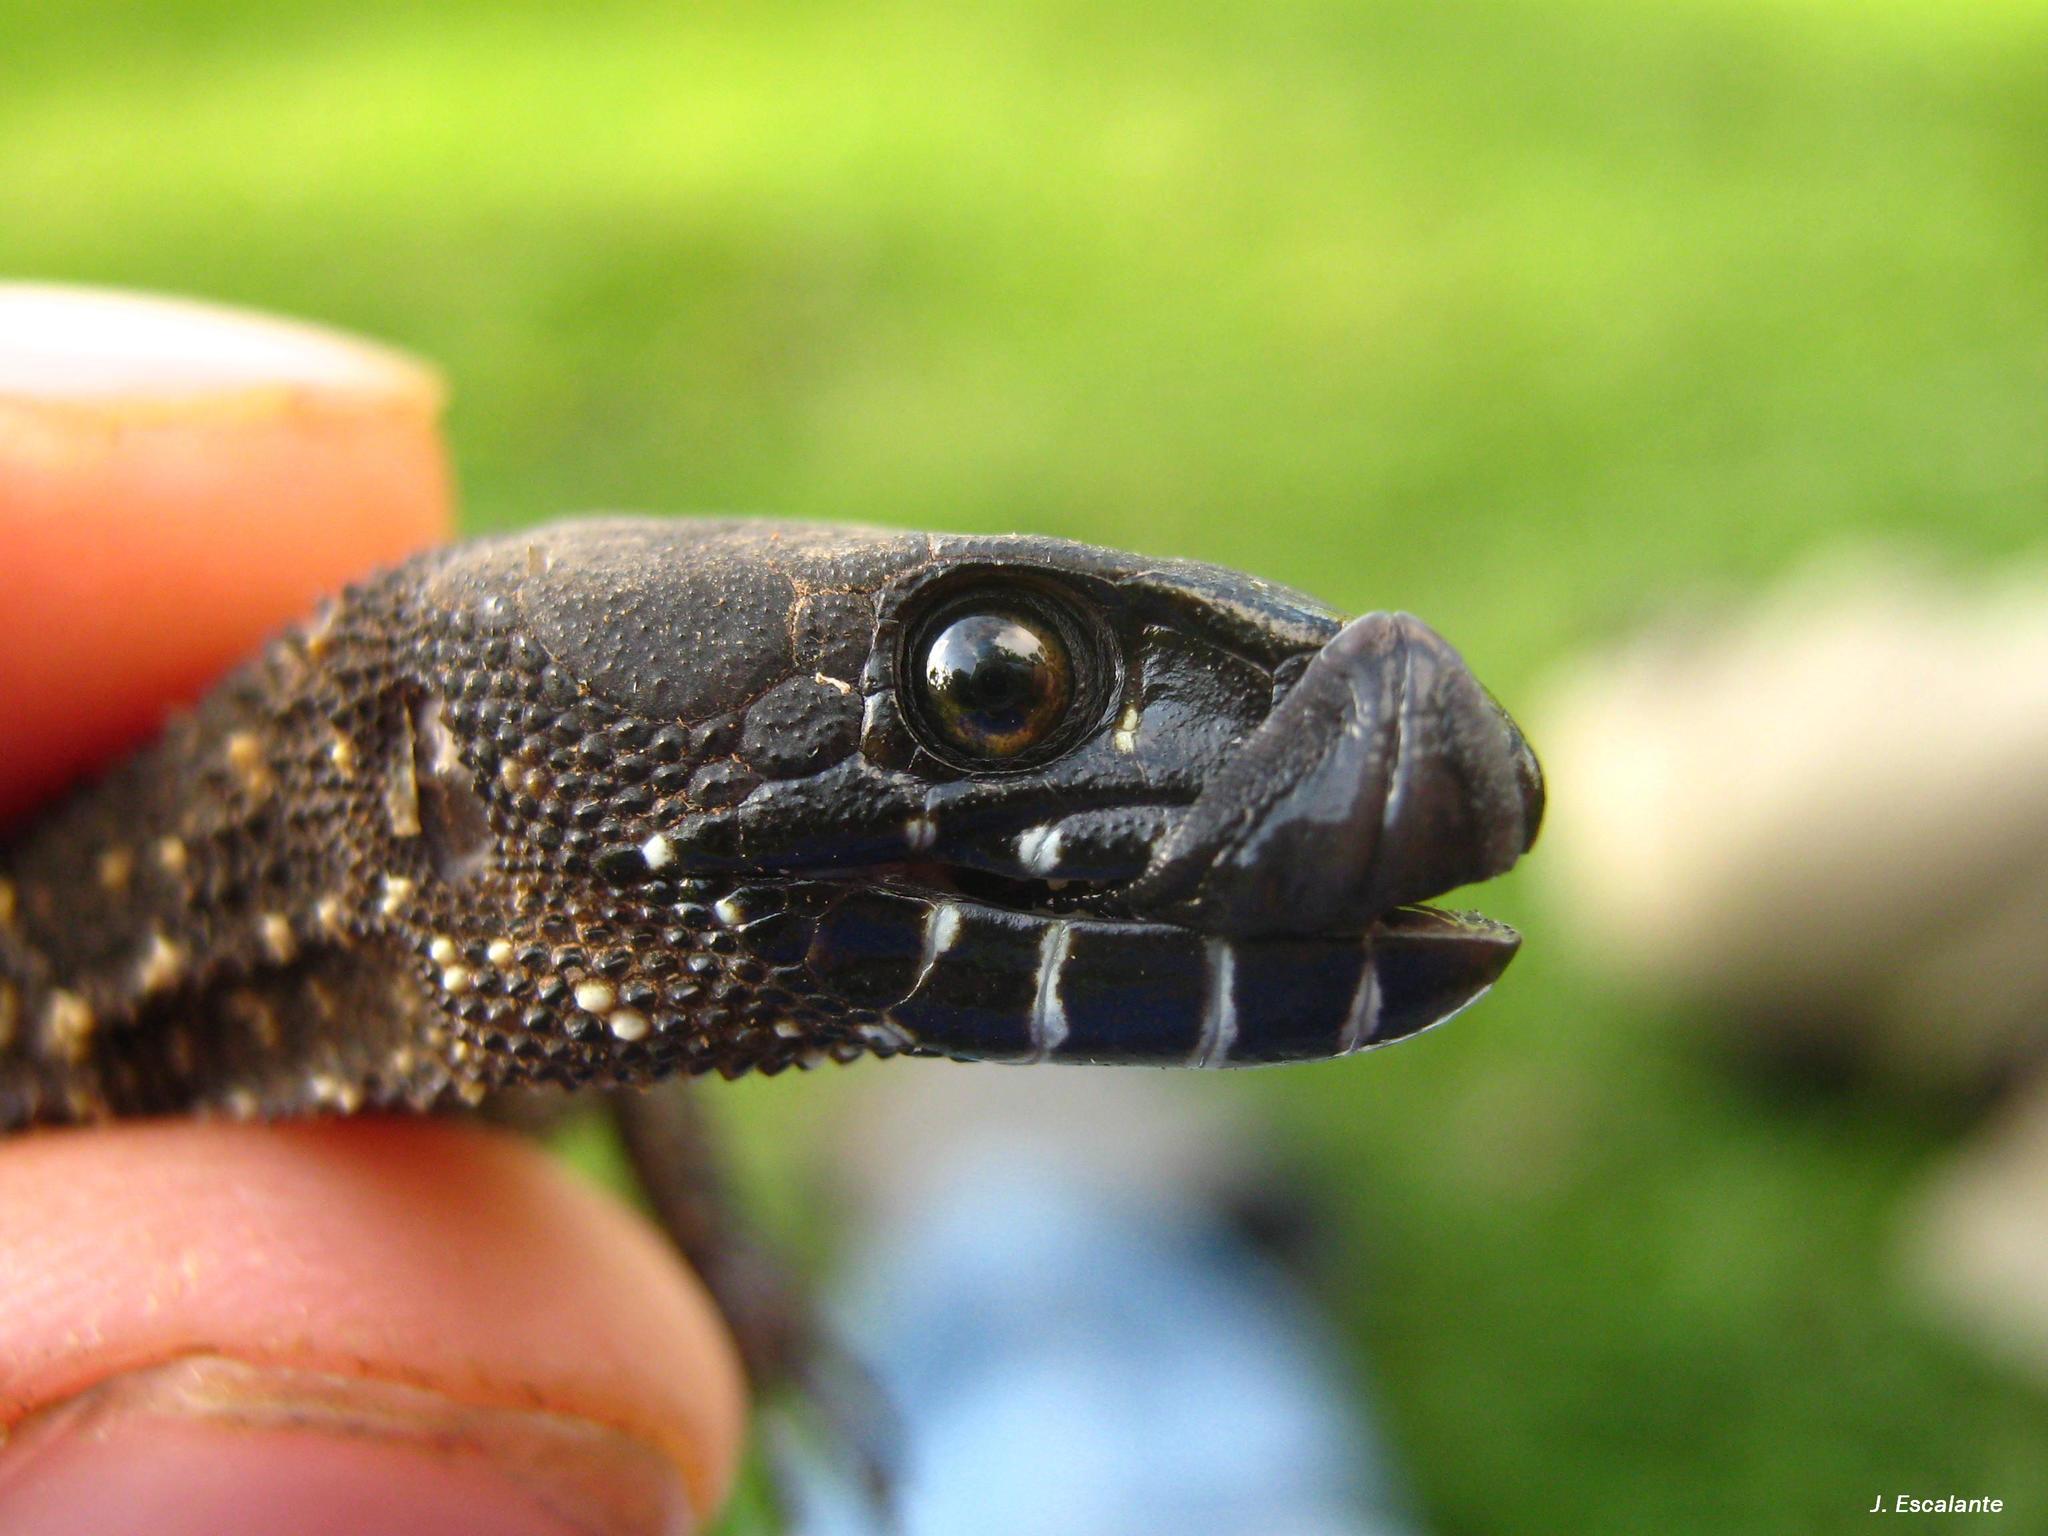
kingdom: Animalia
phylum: Chordata
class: Squamata
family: Xantusiidae
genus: Lepidophyma
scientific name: Lepidophyma tuxtlae
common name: Tuxtla tropical night lizard
